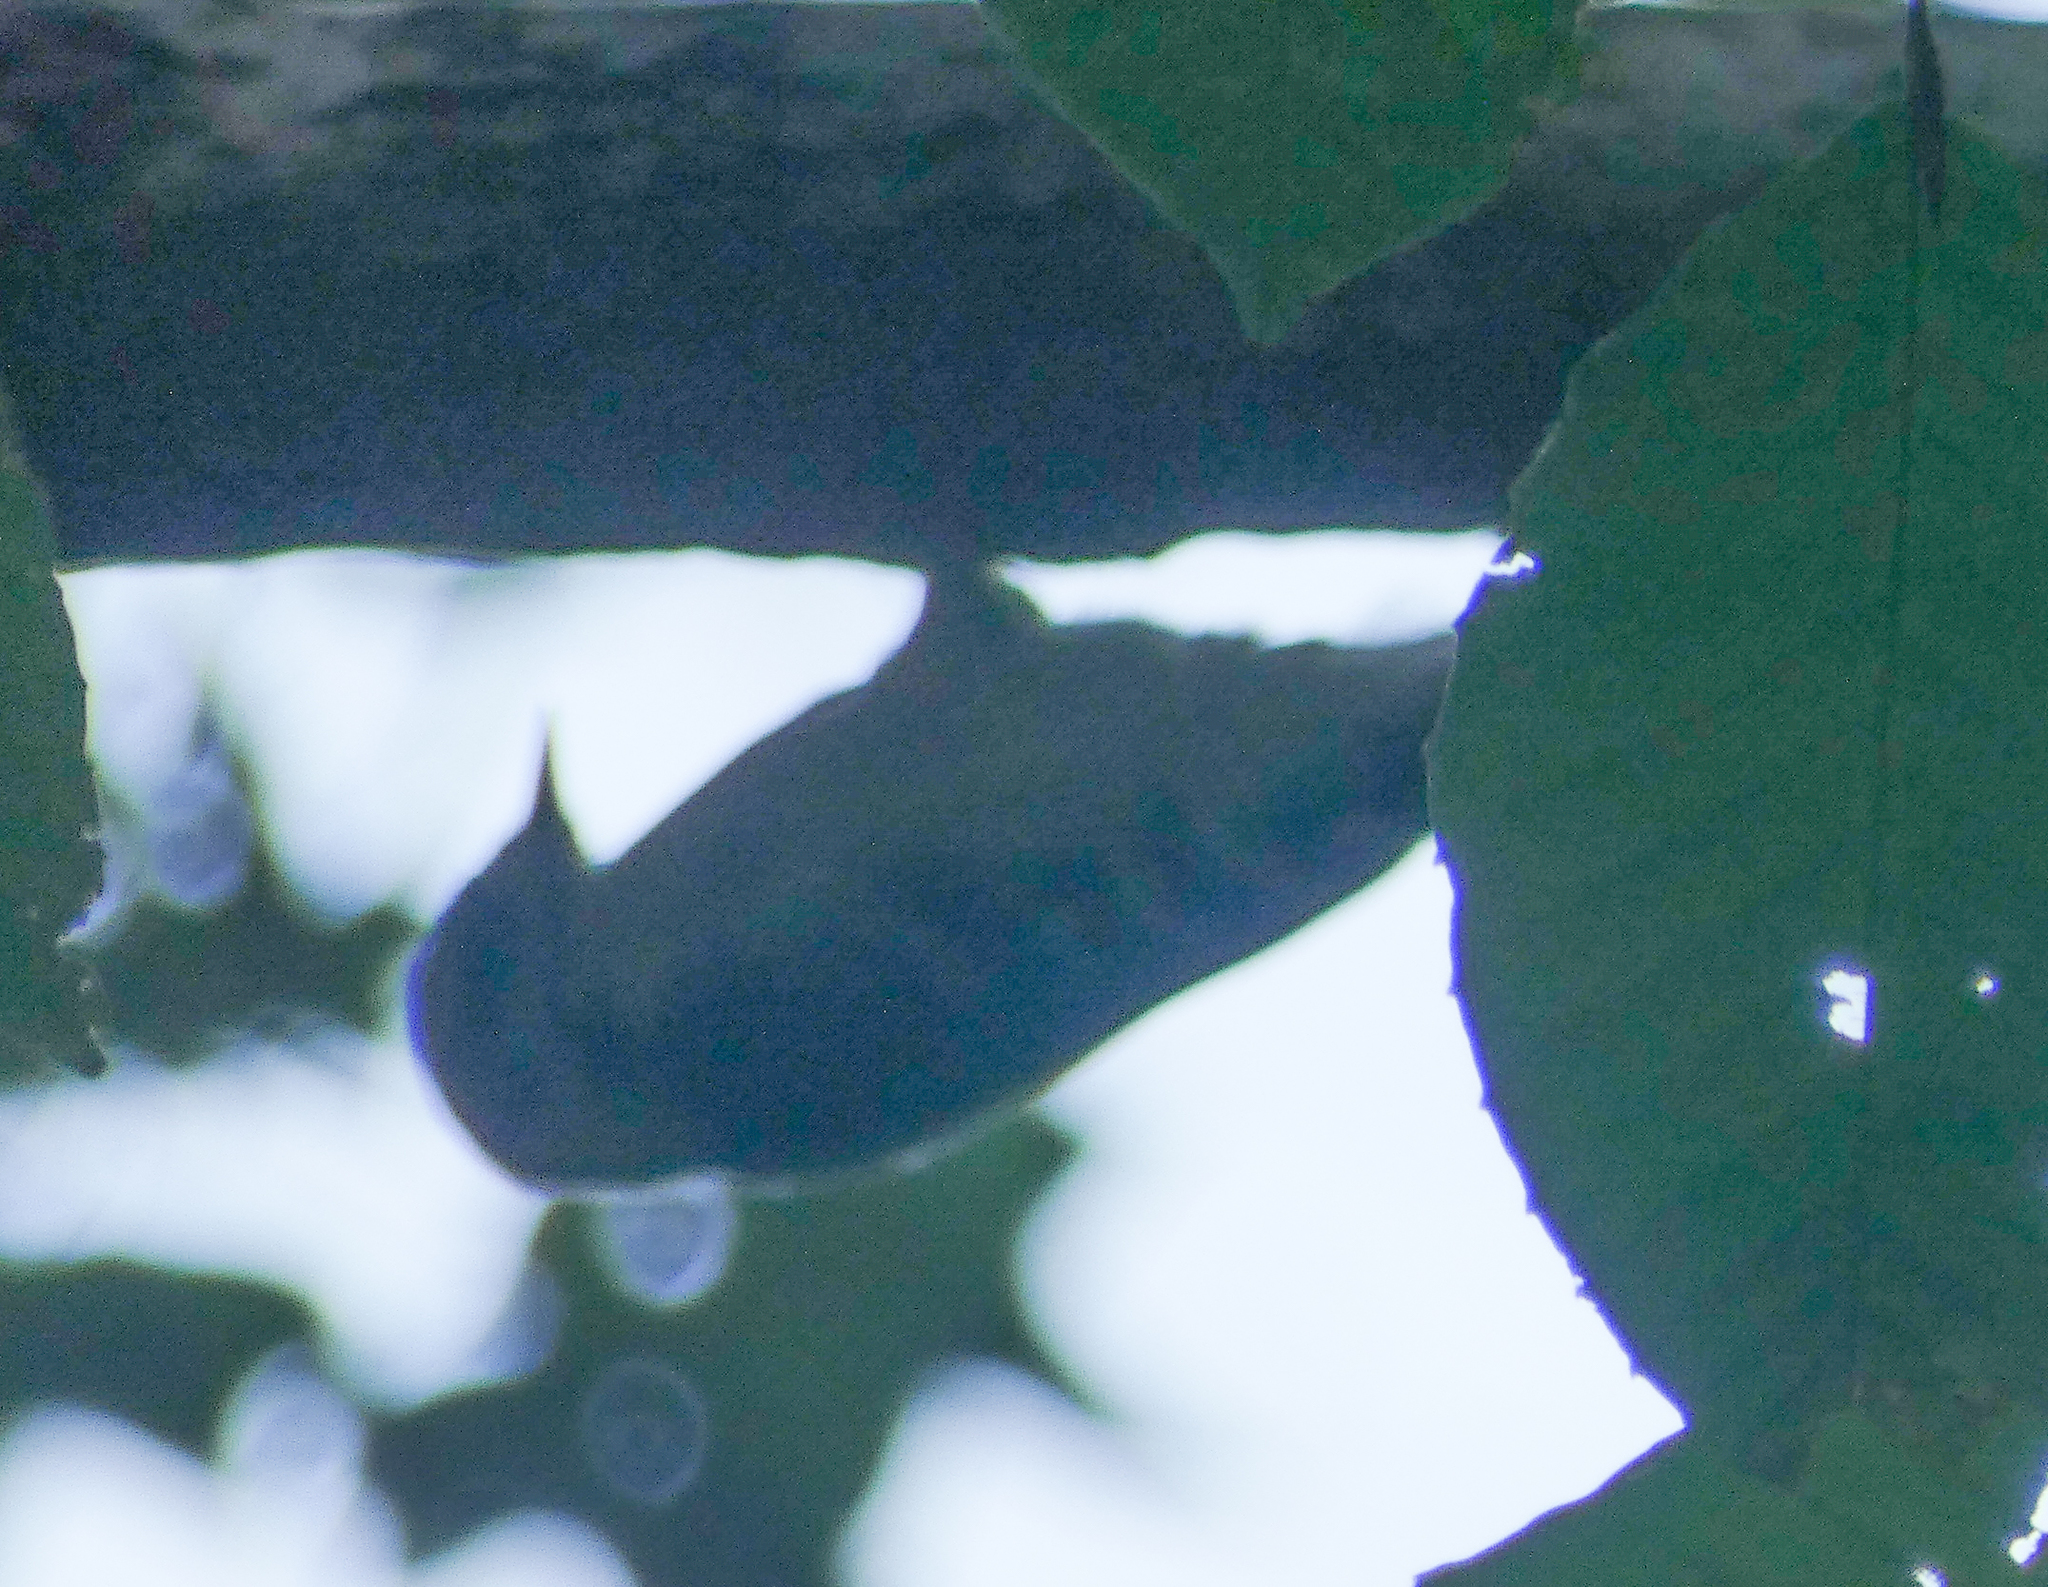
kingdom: Animalia
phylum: Chordata
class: Aves
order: Piciformes
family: Picidae
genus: Dryobates
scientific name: Dryobates pubescens
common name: Downy woodpecker
